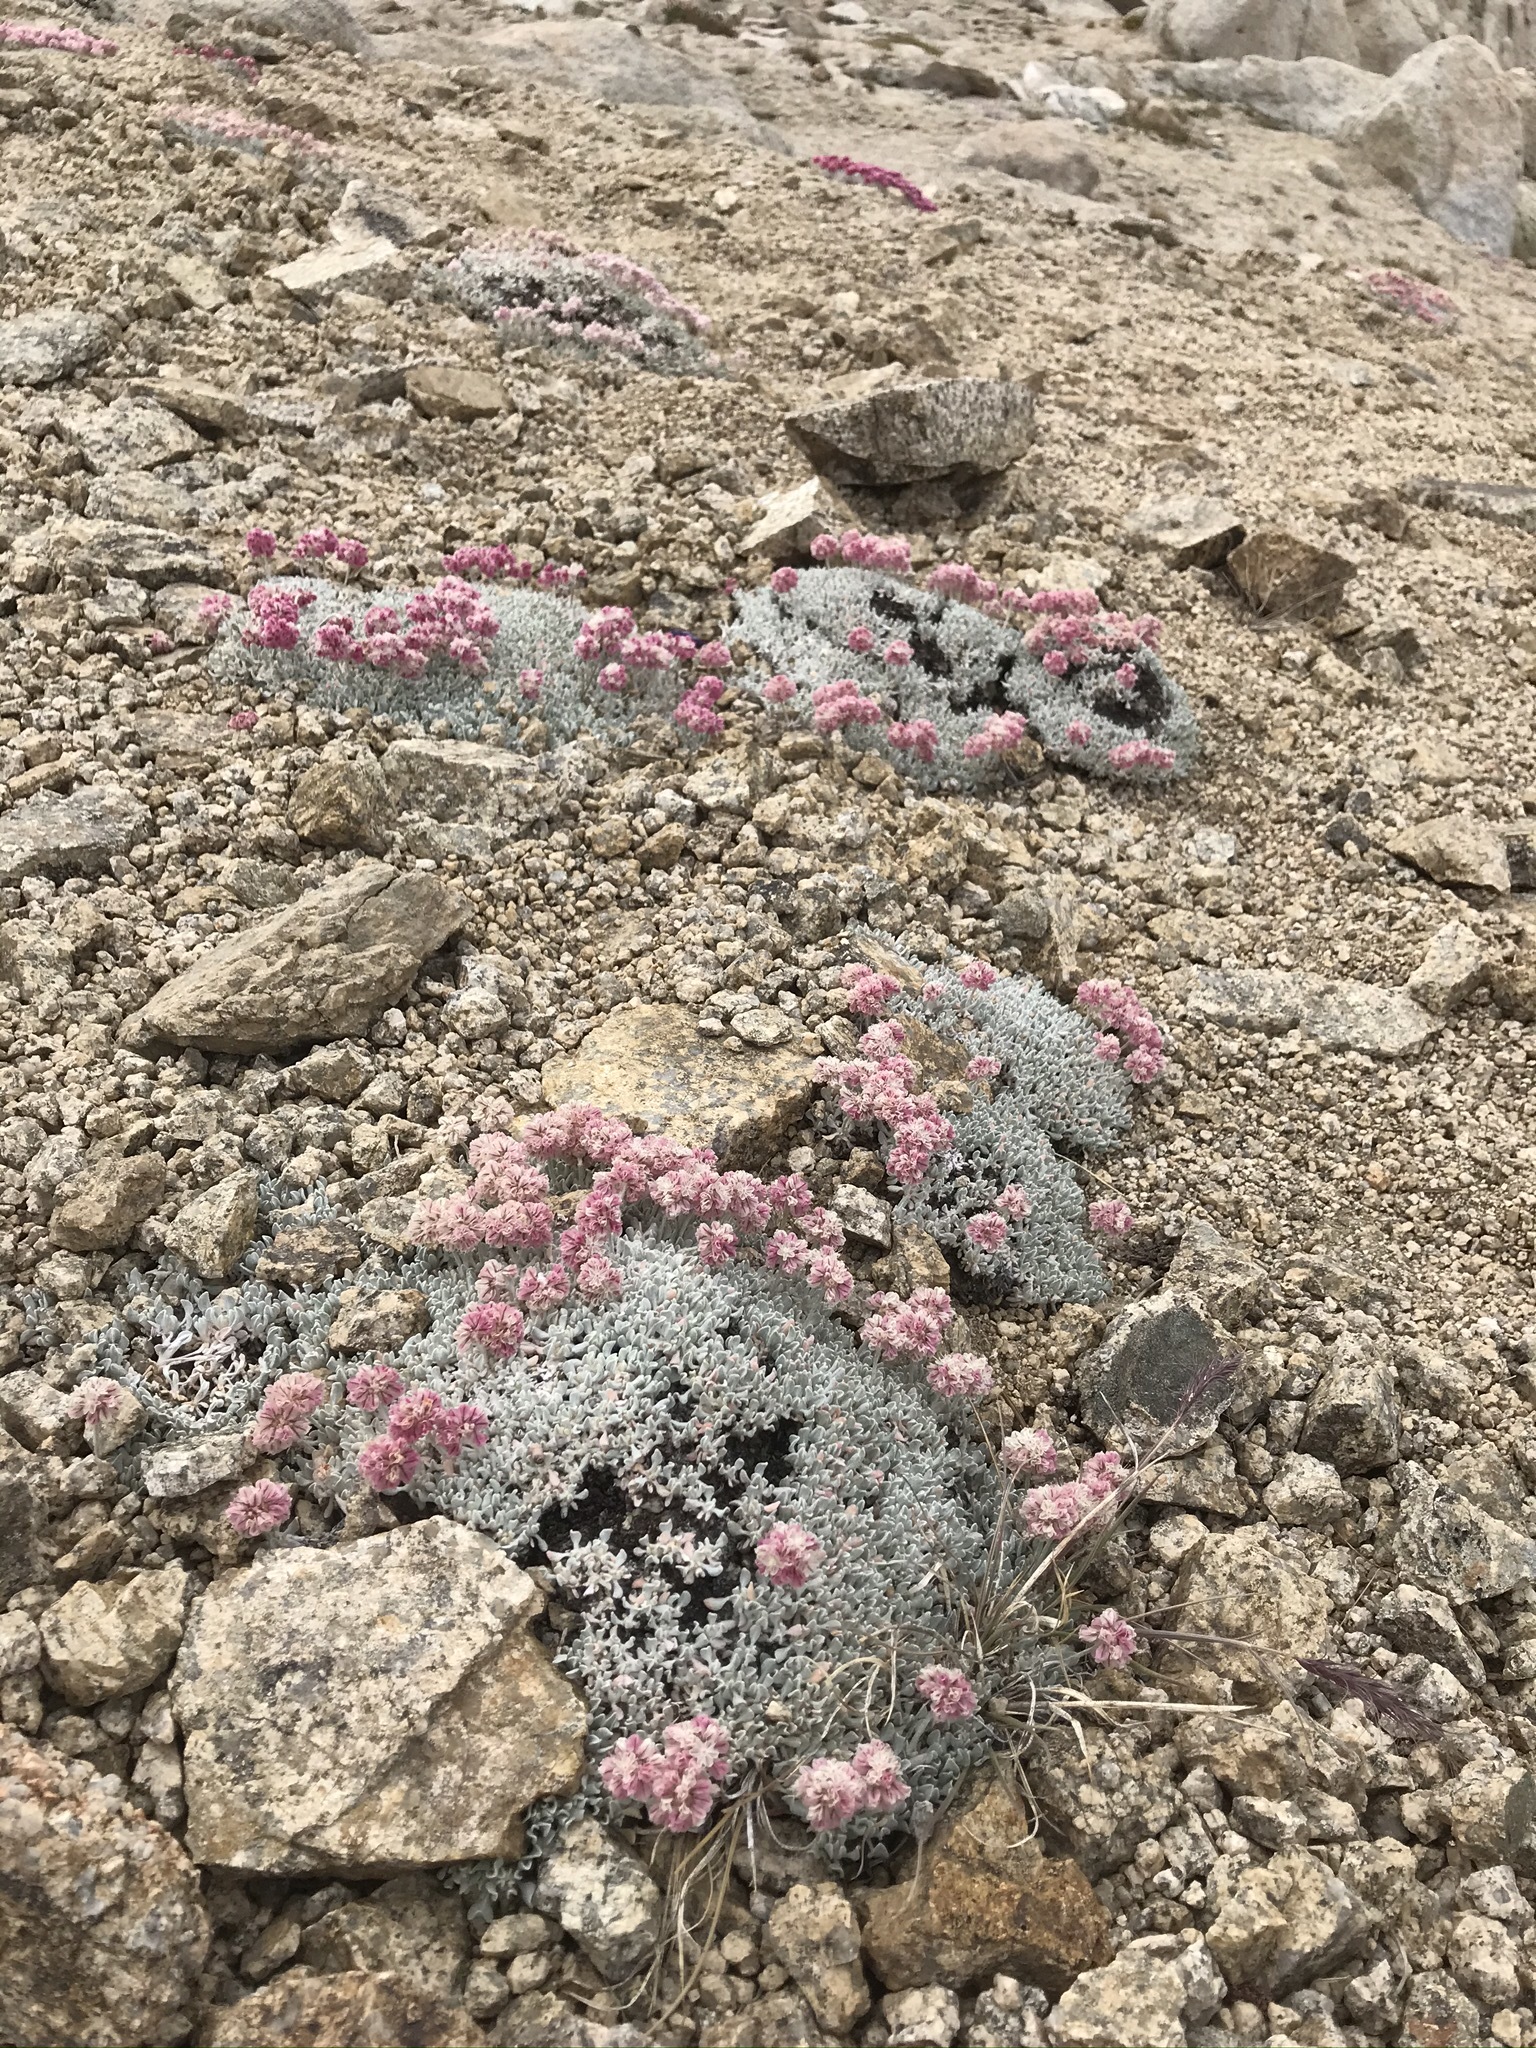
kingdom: Plantae
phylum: Tracheophyta
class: Magnoliopsida
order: Caryophyllales
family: Polygonaceae
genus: Eriogonum
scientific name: Eriogonum ovalifolium
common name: Cushion buckwheat
